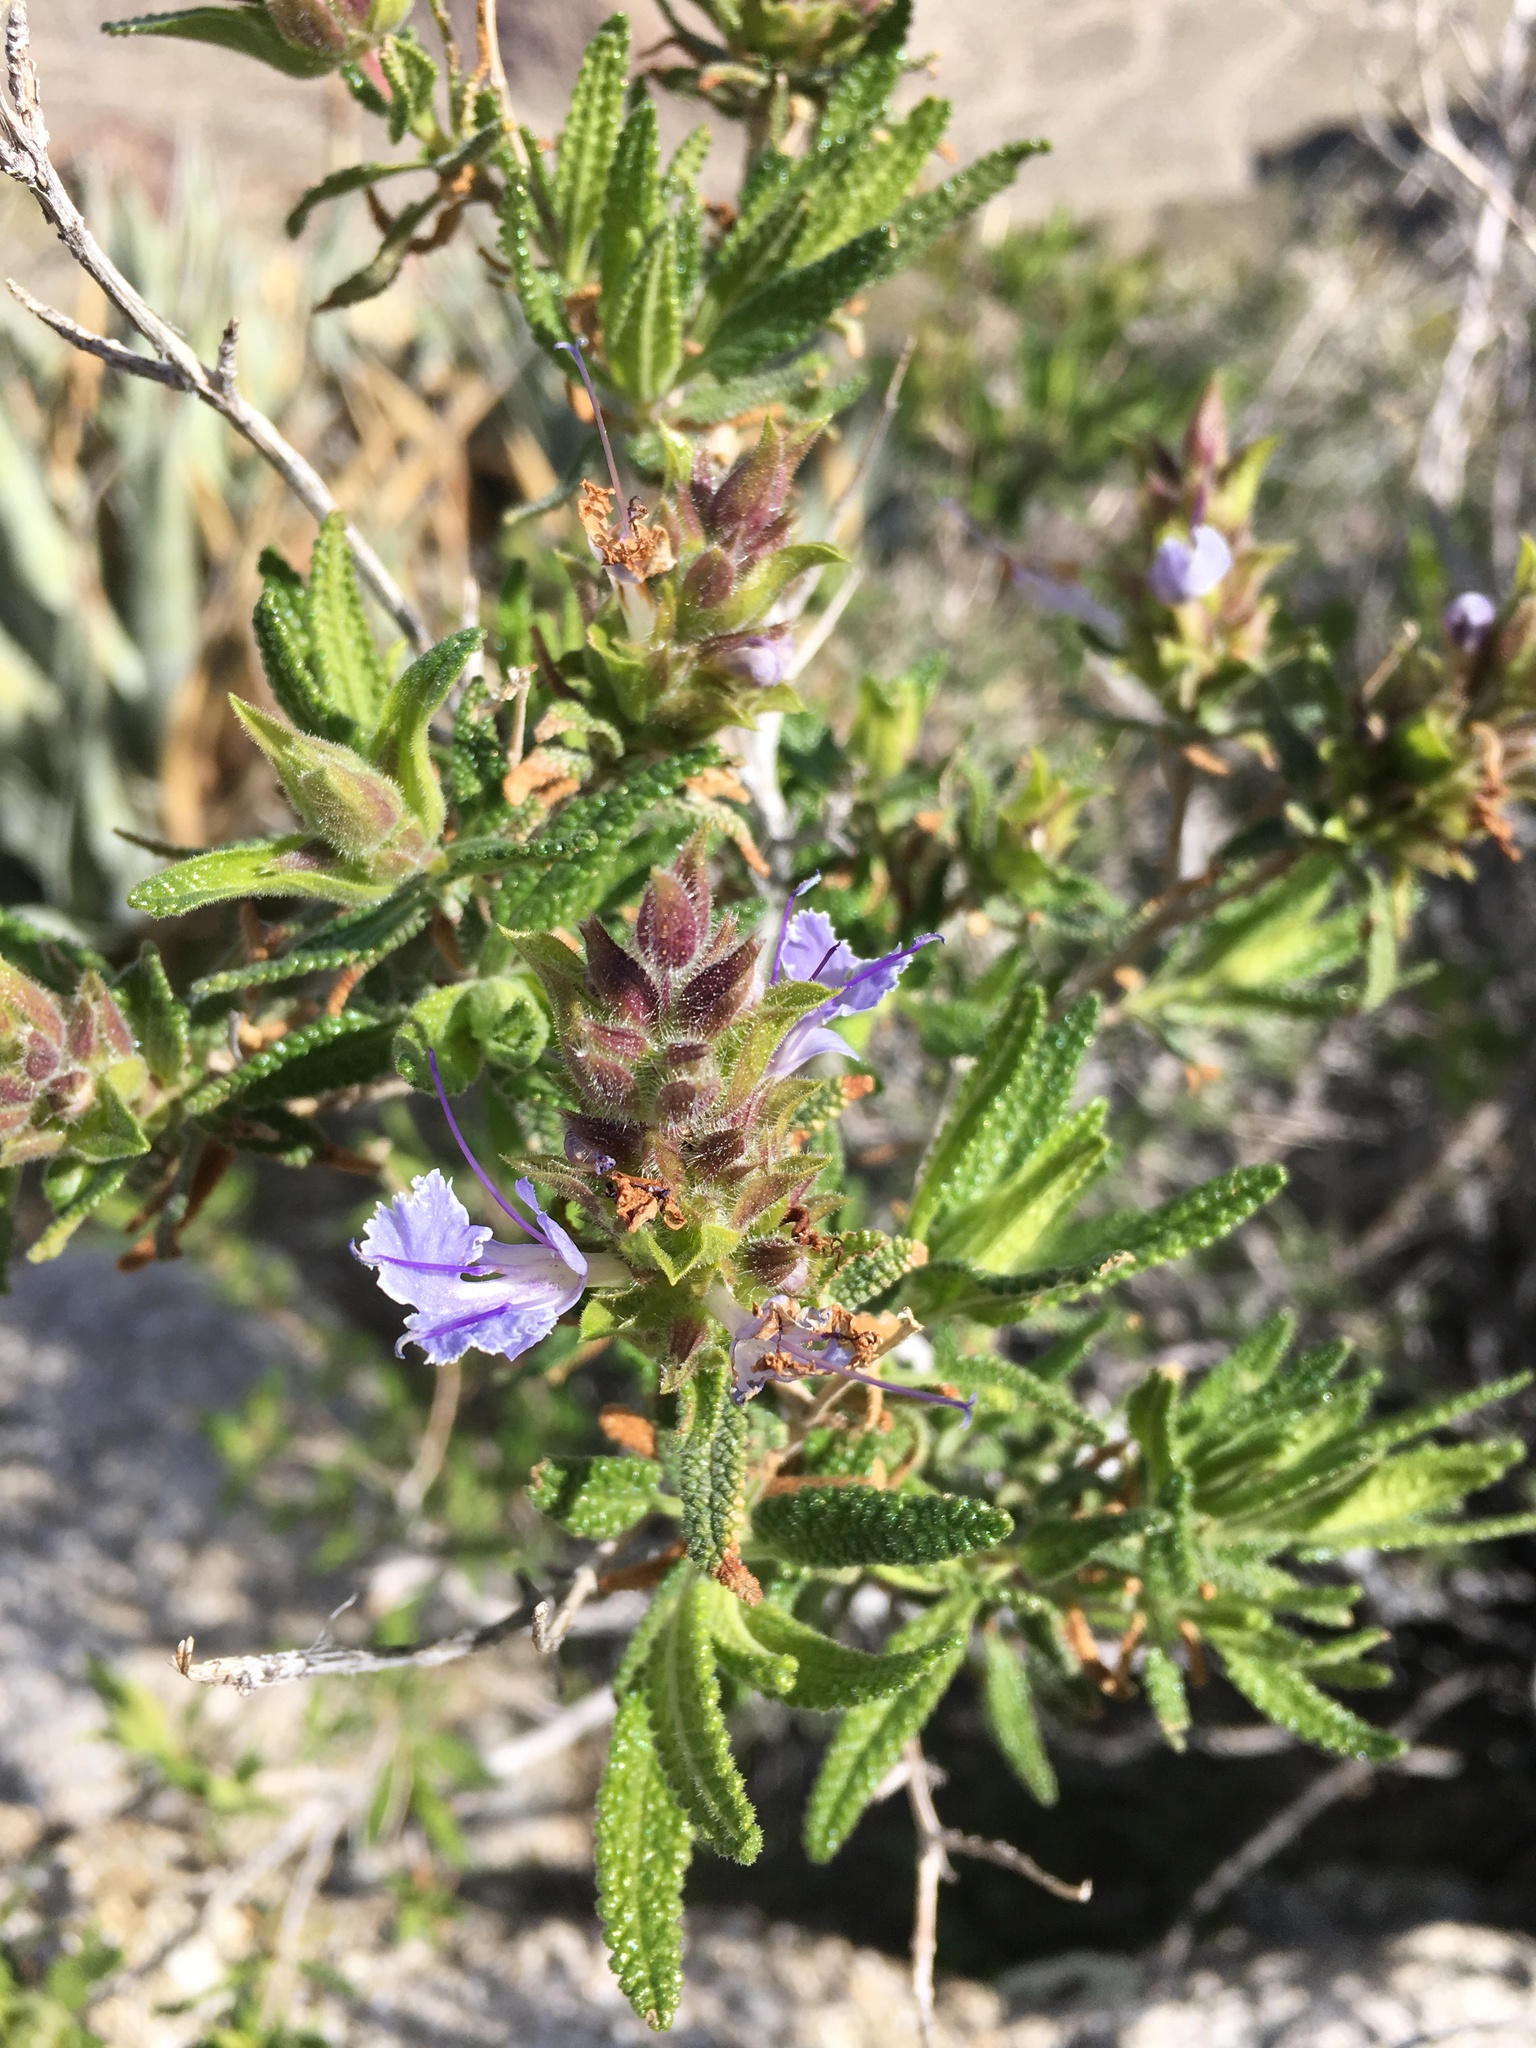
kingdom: Plantae
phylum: Tracheophyta
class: Magnoliopsida
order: Lamiales
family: Lamiaceae
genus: Salvia
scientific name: Salvia eremostachya
